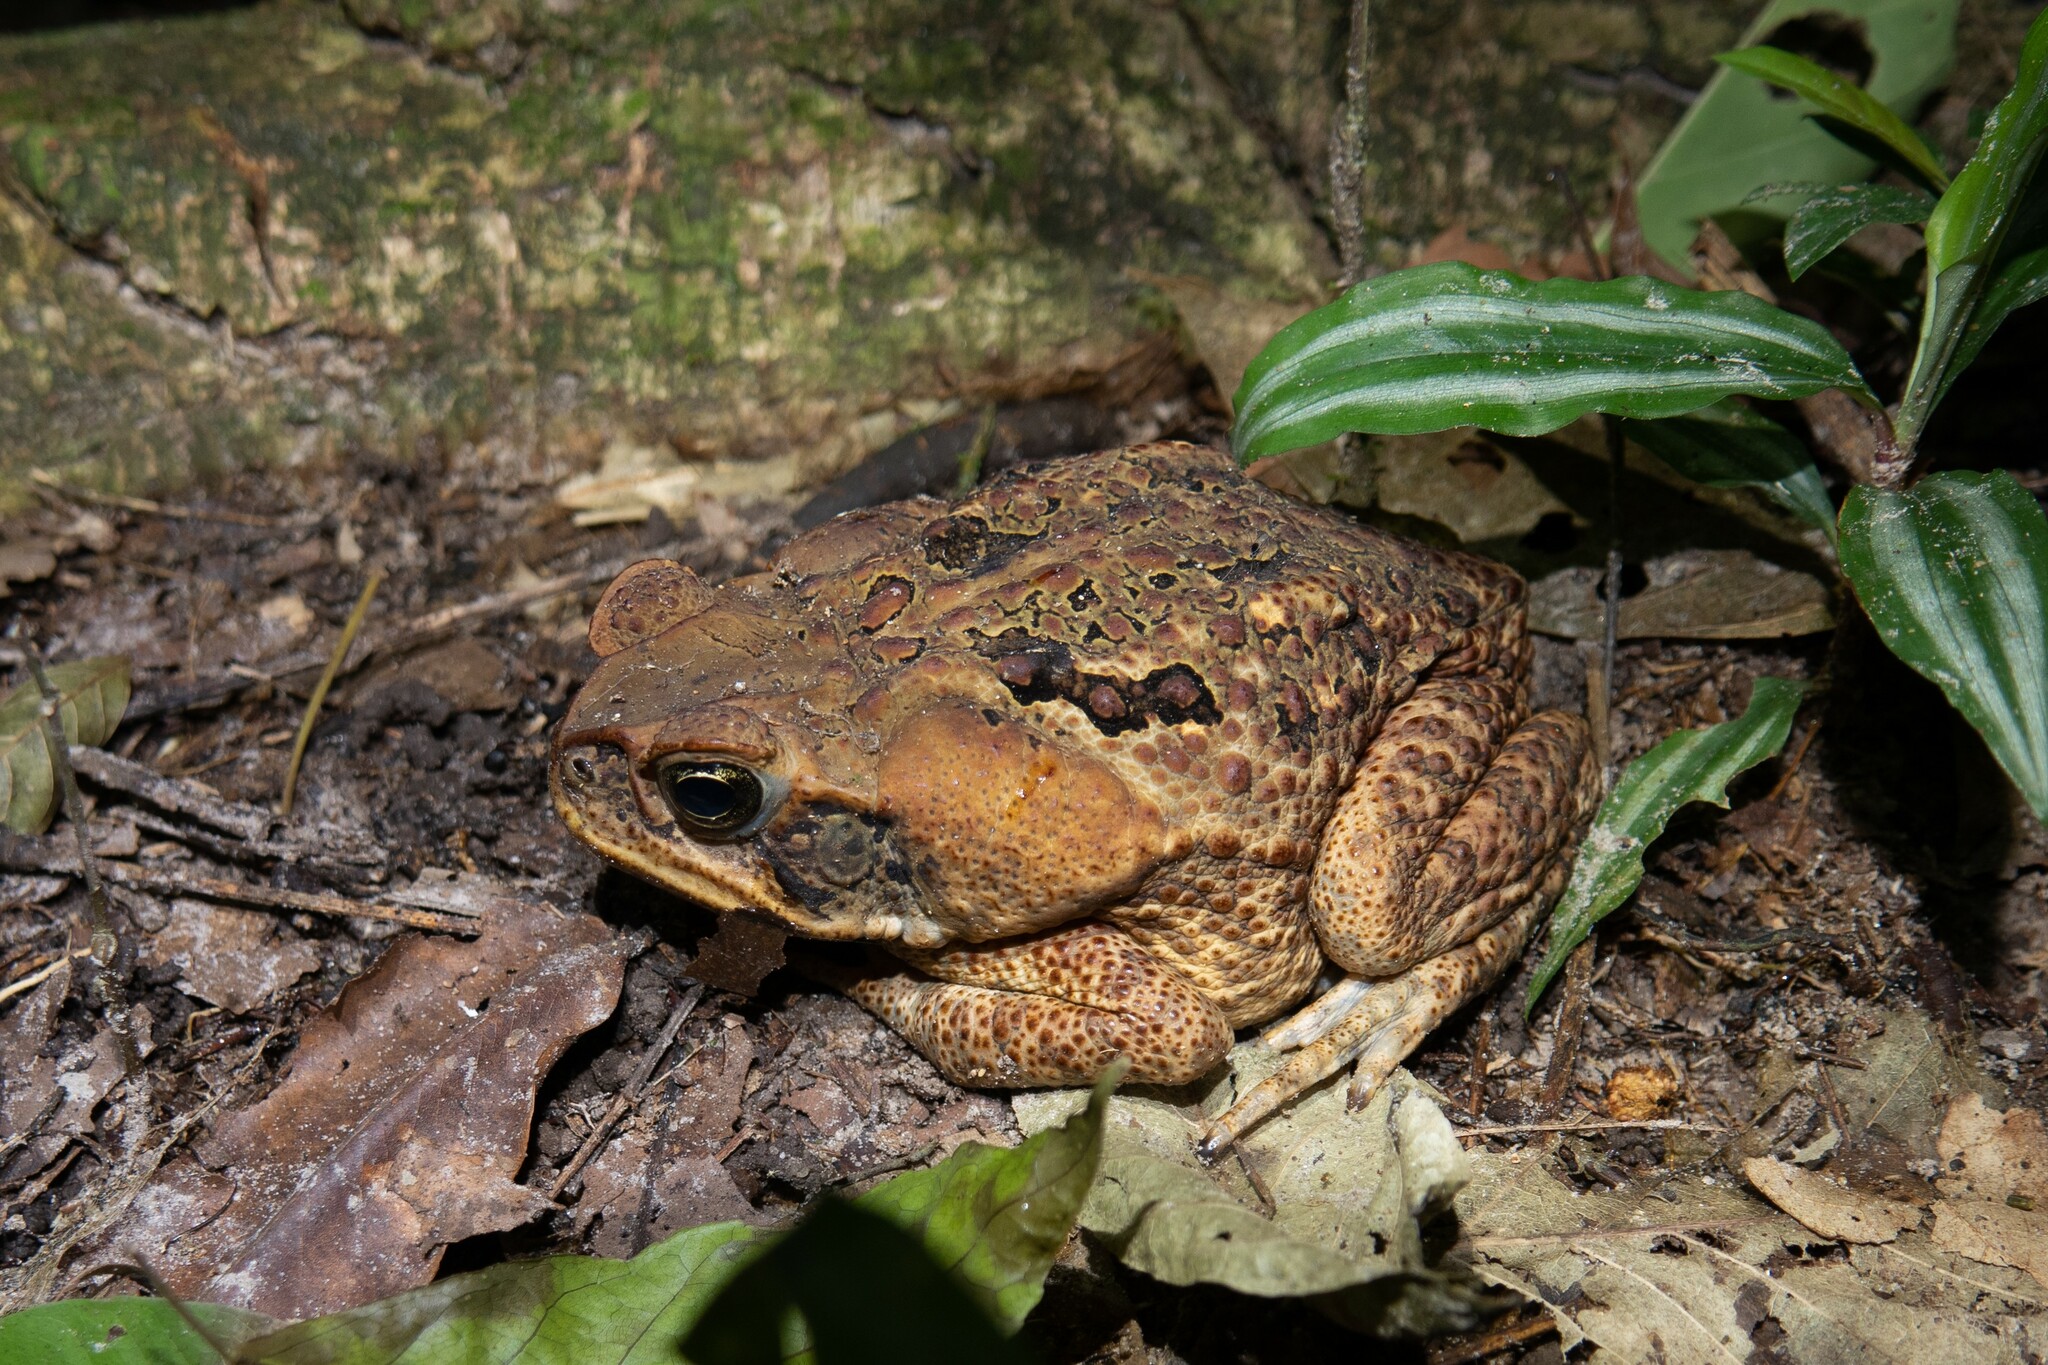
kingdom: Animalia
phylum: Chordata
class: Amphibia
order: Anura
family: Bufonidae
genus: Rhinella
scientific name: Rhinella marina
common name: Cane toad
